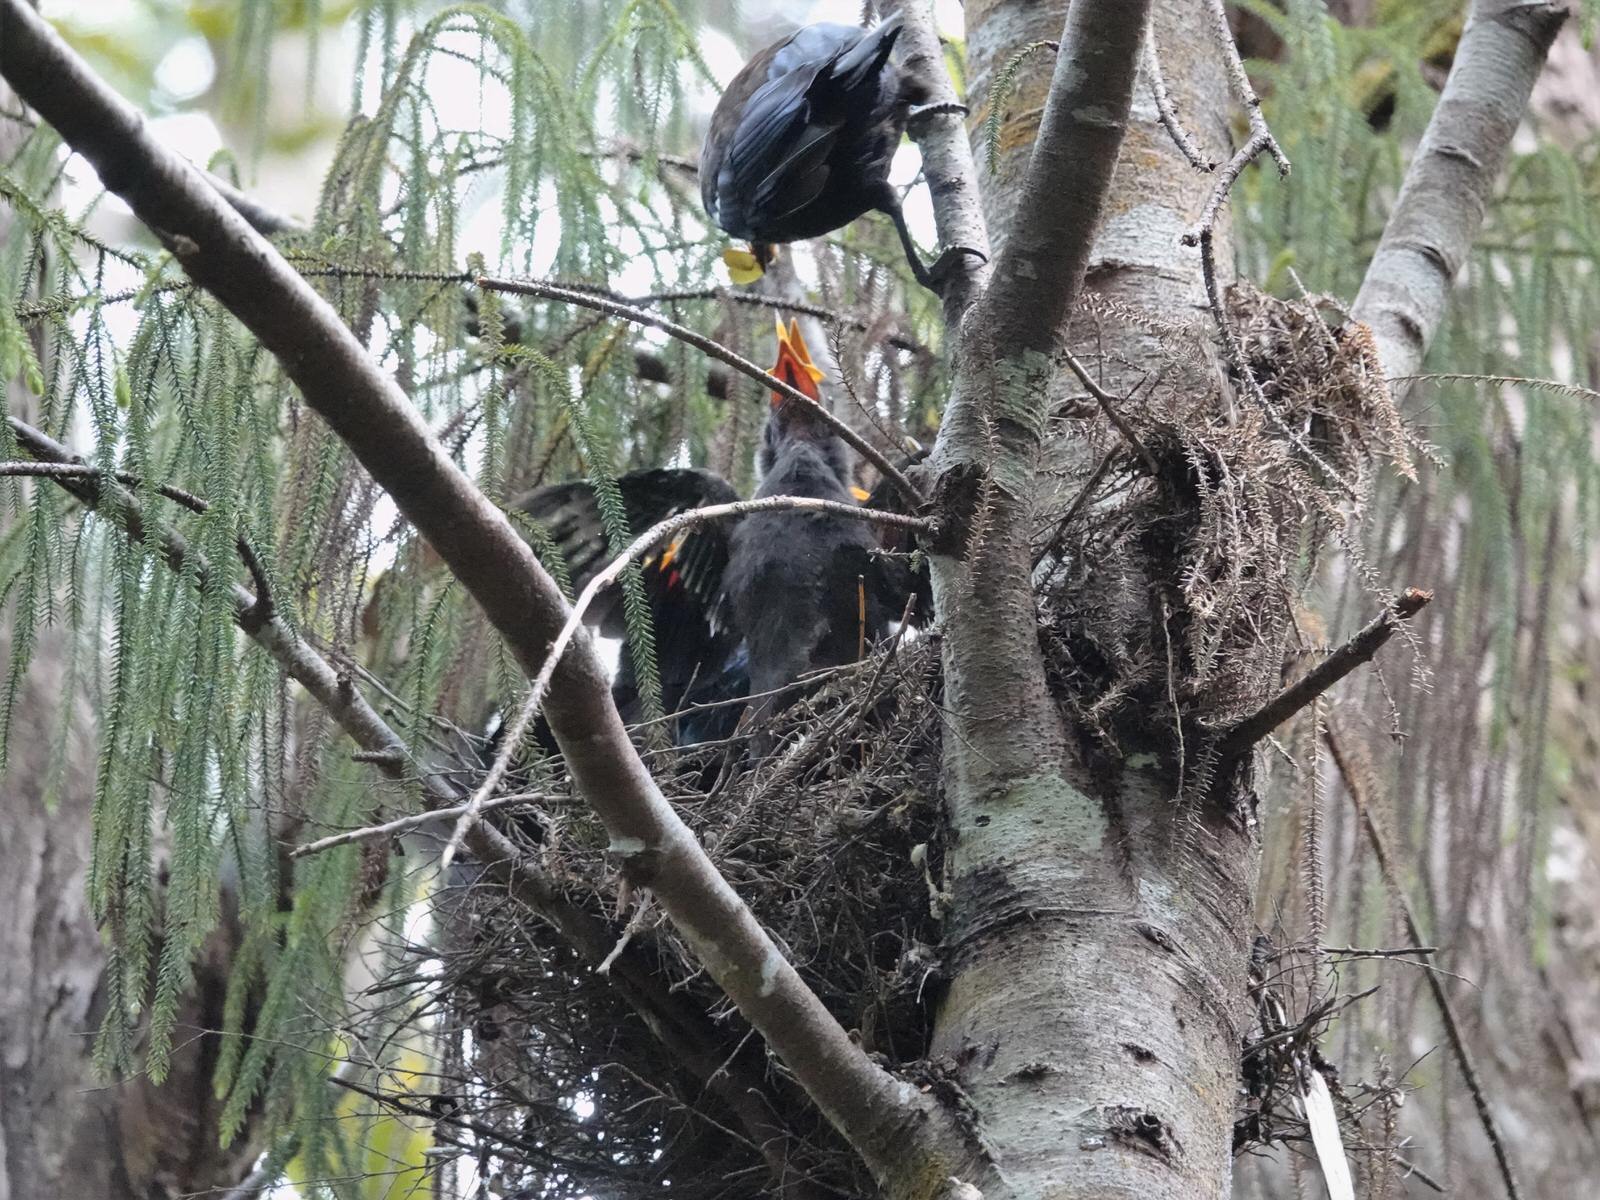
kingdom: Animalia
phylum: Chordata
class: Aves
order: Passeriformes
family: Meliphagidae
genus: Prosthemadera
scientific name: Prosthemadera novaeseelandiae
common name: Tui
